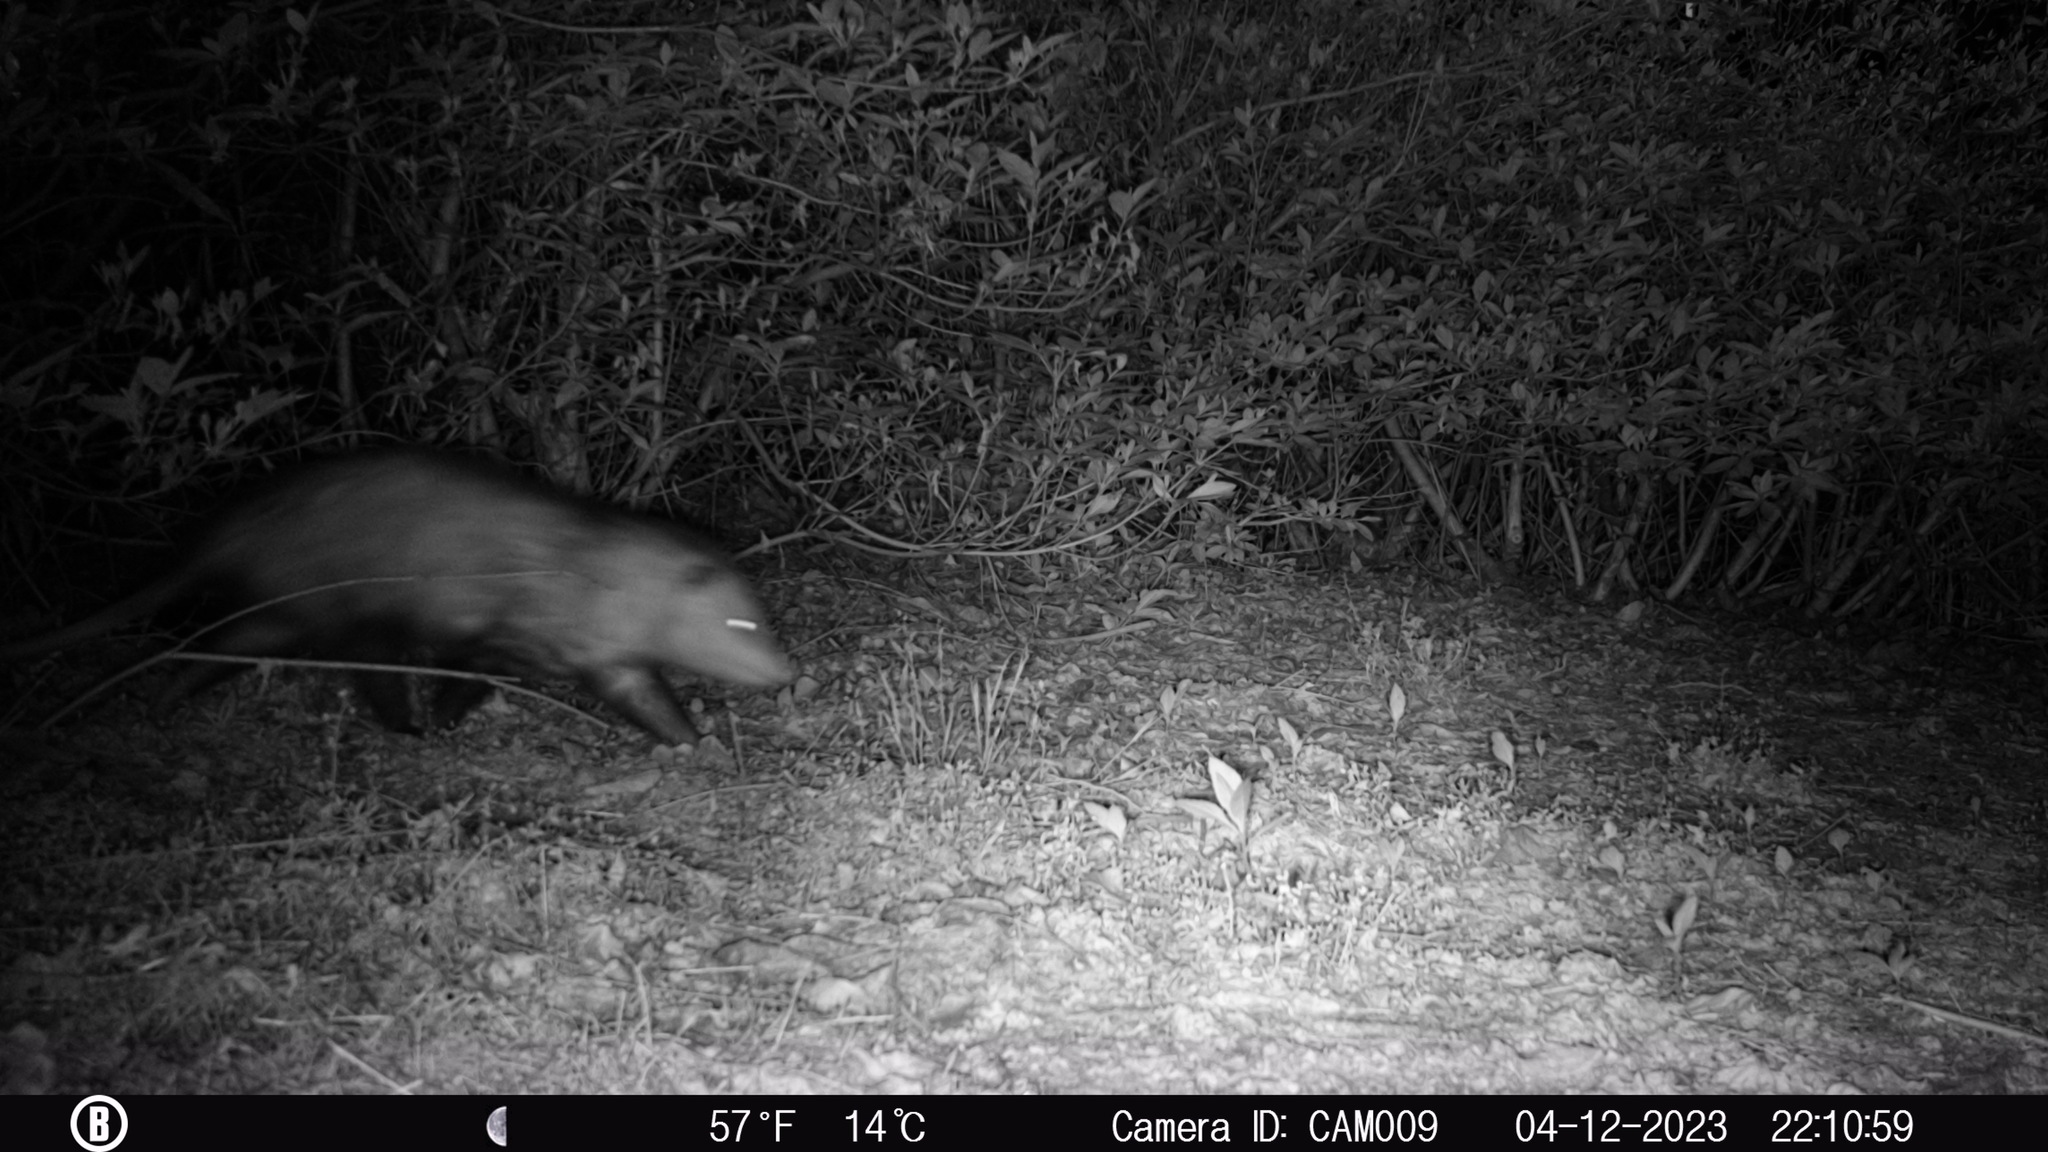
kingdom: Animalia
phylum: Chordata
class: Mammalia
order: Didelphimorphia
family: Didelphidae
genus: Didelphis
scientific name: Didelphis virginiana
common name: Virginia opossum
